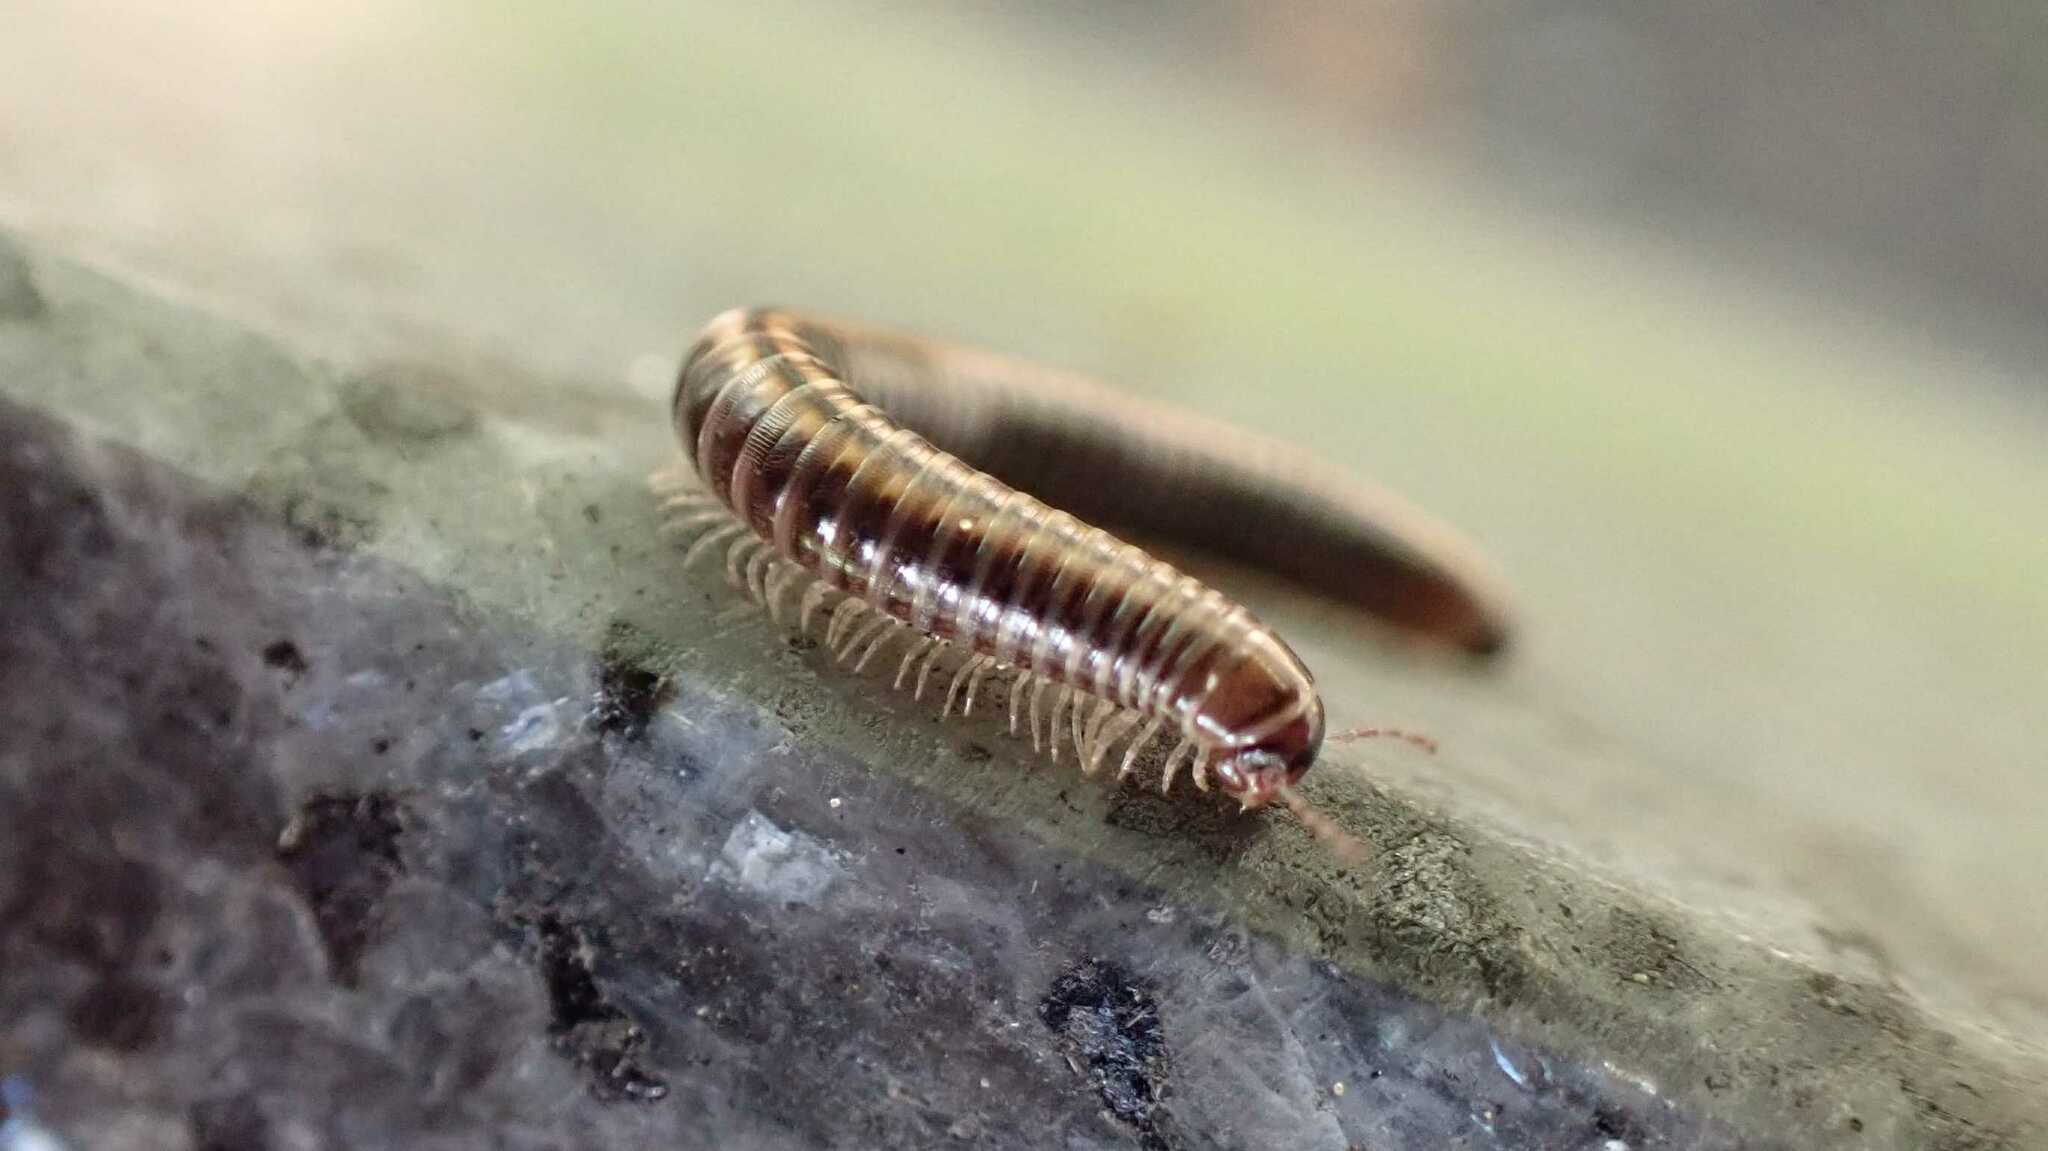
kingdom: Animalia
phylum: Arthropoda
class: Diplopoda
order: Julida
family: Julidae
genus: Ommatoiulus
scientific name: Ommatoiulus sabulosus
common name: Striped millipede
